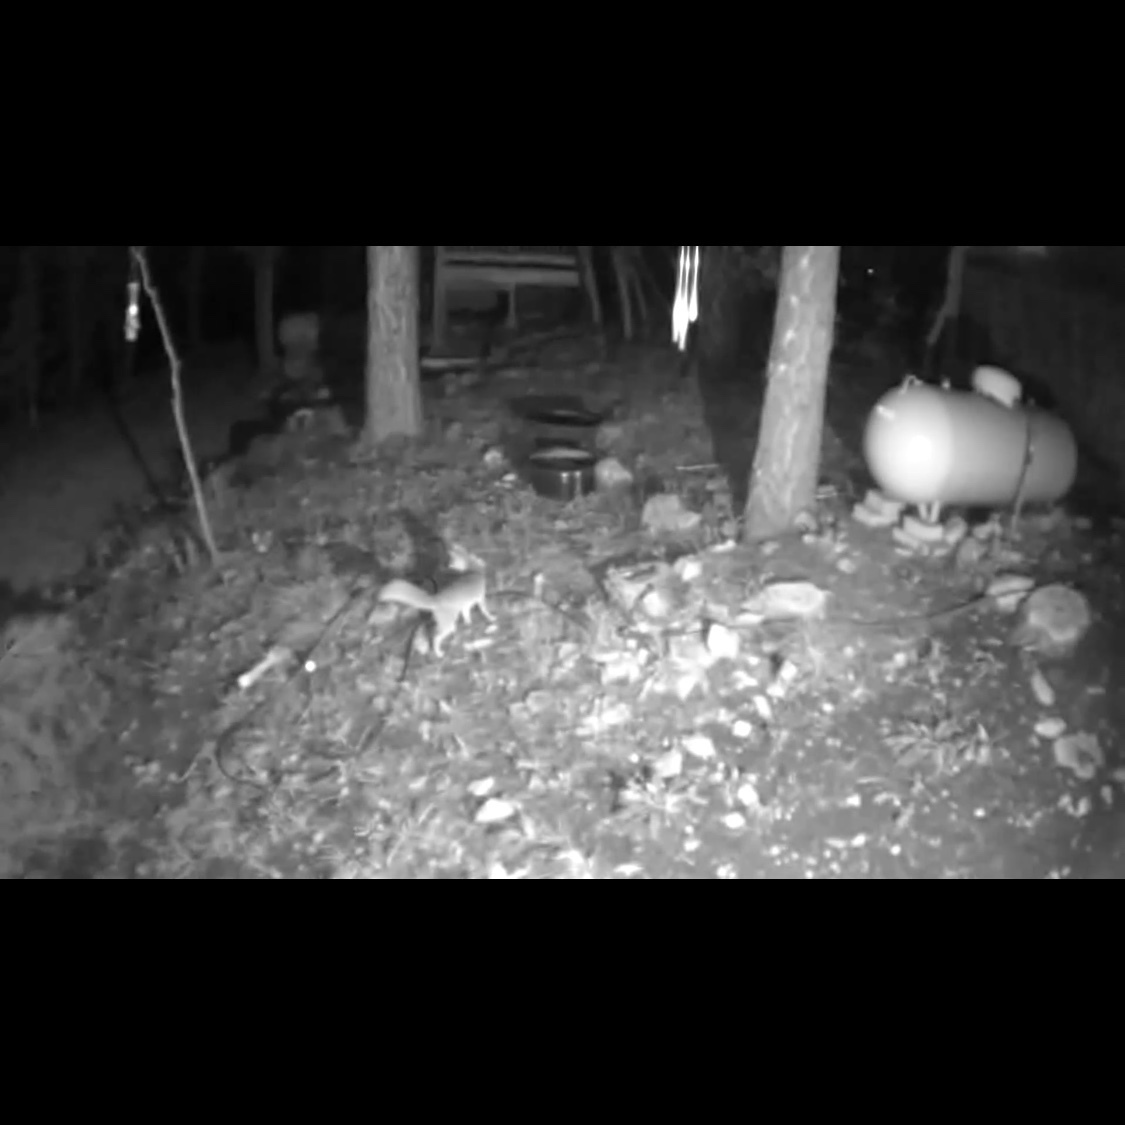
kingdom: Animalia
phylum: Chordata
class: Mammalia
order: Carnivora
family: Canidae
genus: Urocyon
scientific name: Urocyon cinereoargenteus
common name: Gray fox
